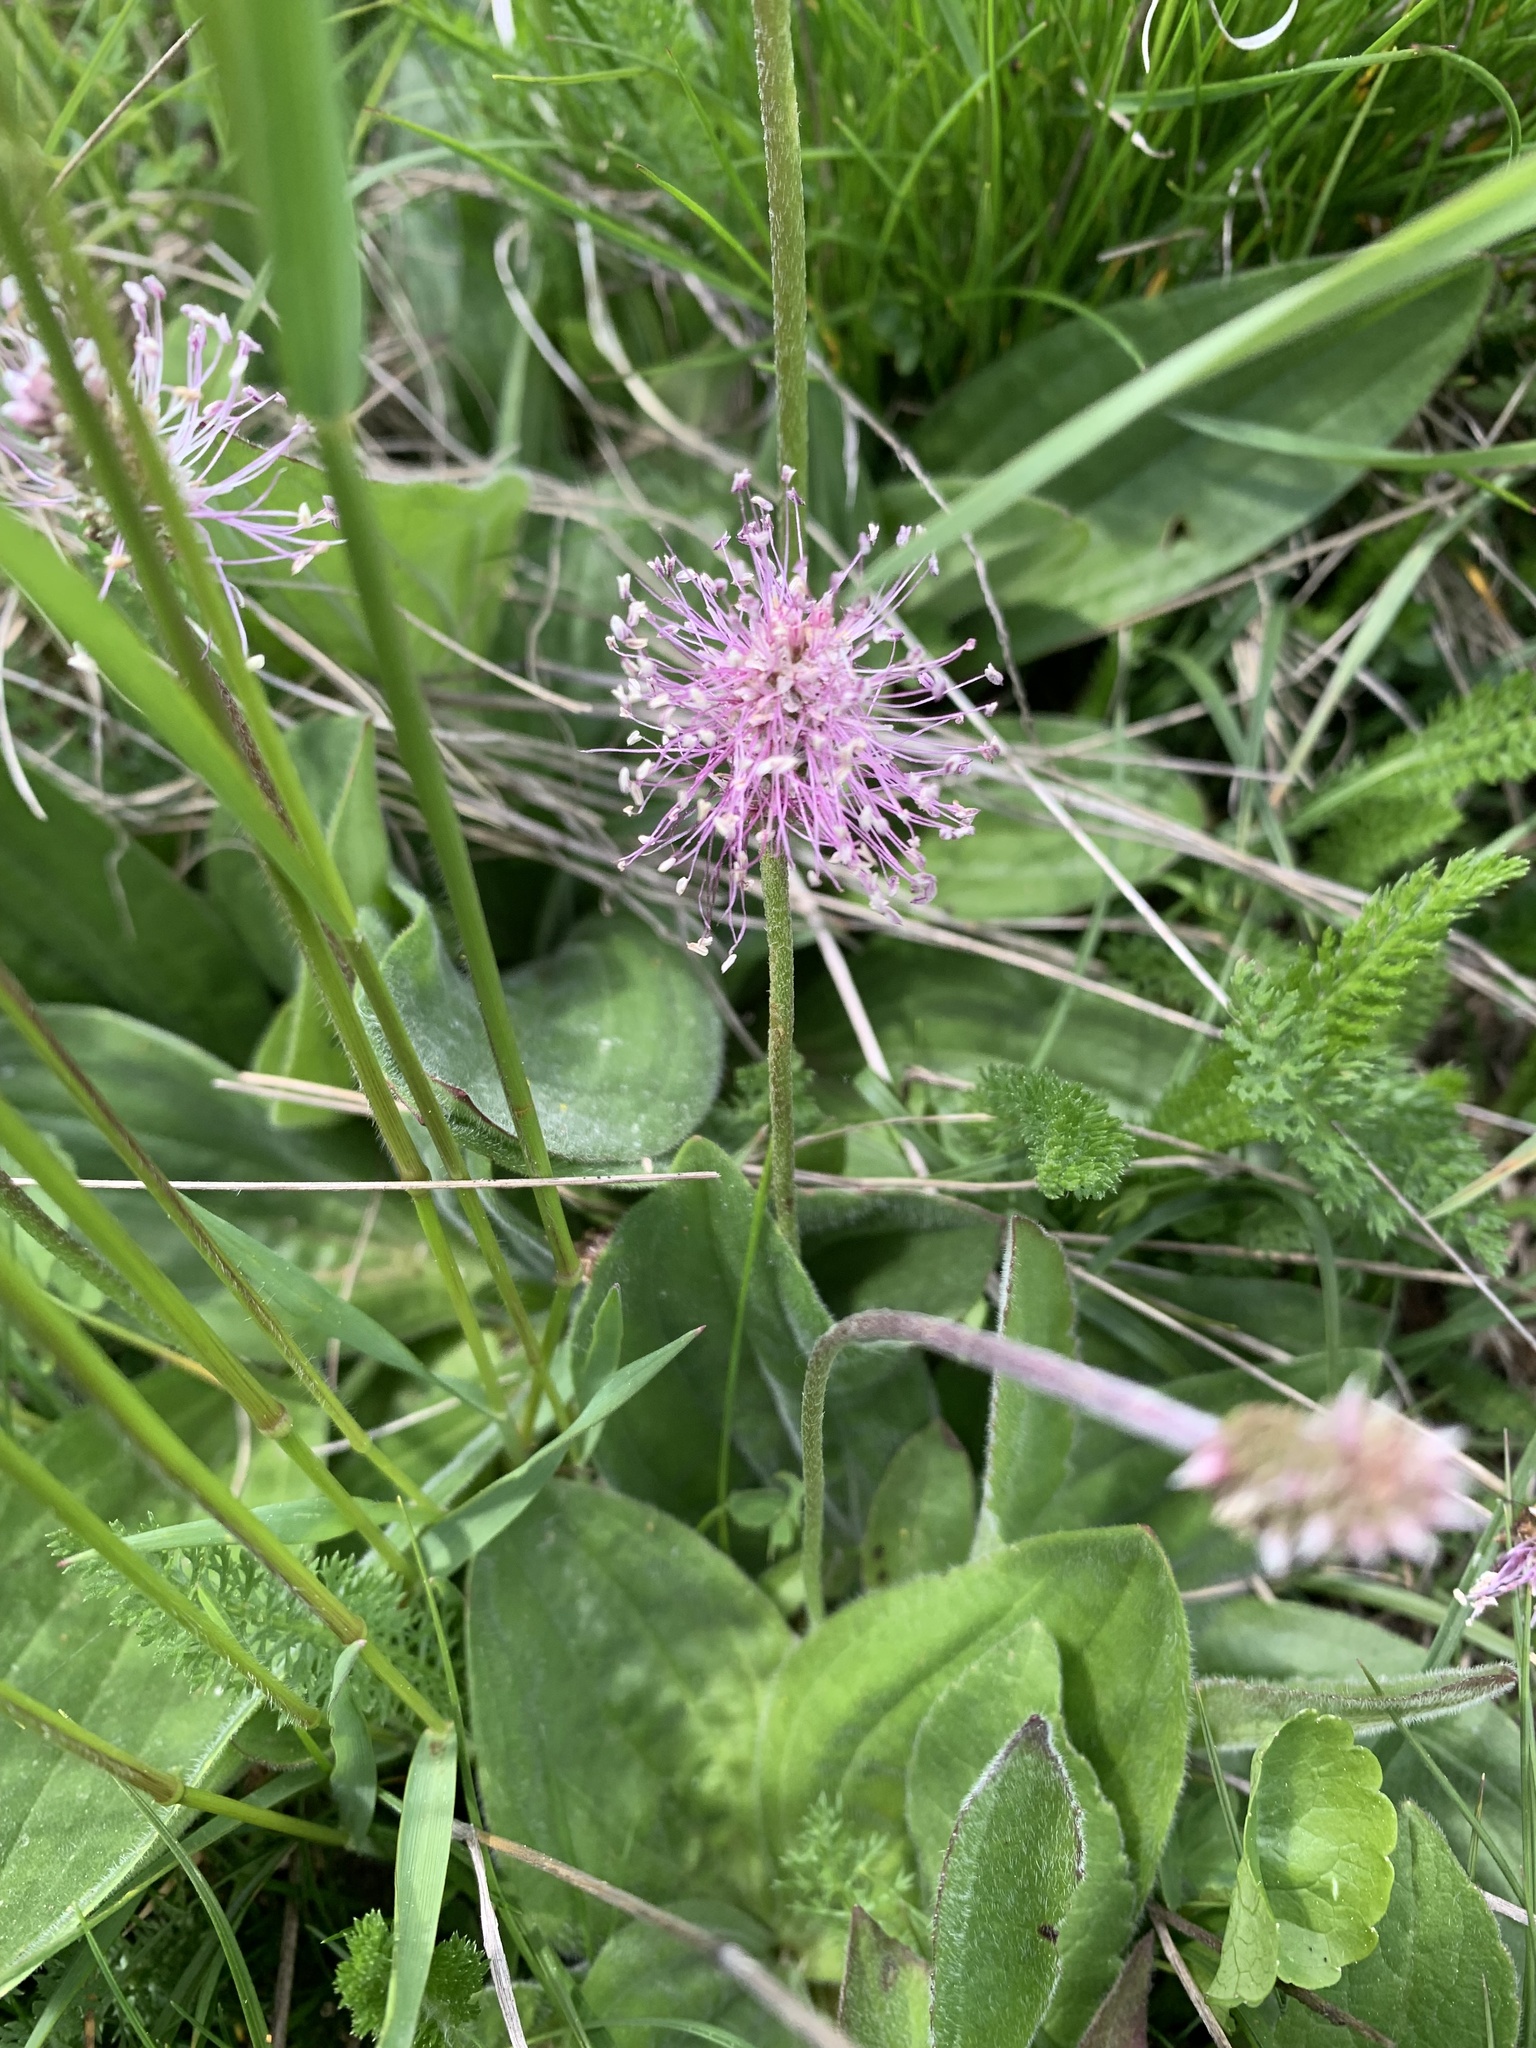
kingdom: Plantae
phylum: Tracheophyta
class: Magnoliopsida
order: Lamiales
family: Plantaginaceae
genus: Plantago
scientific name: Plantago media
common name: Hoary plantain
